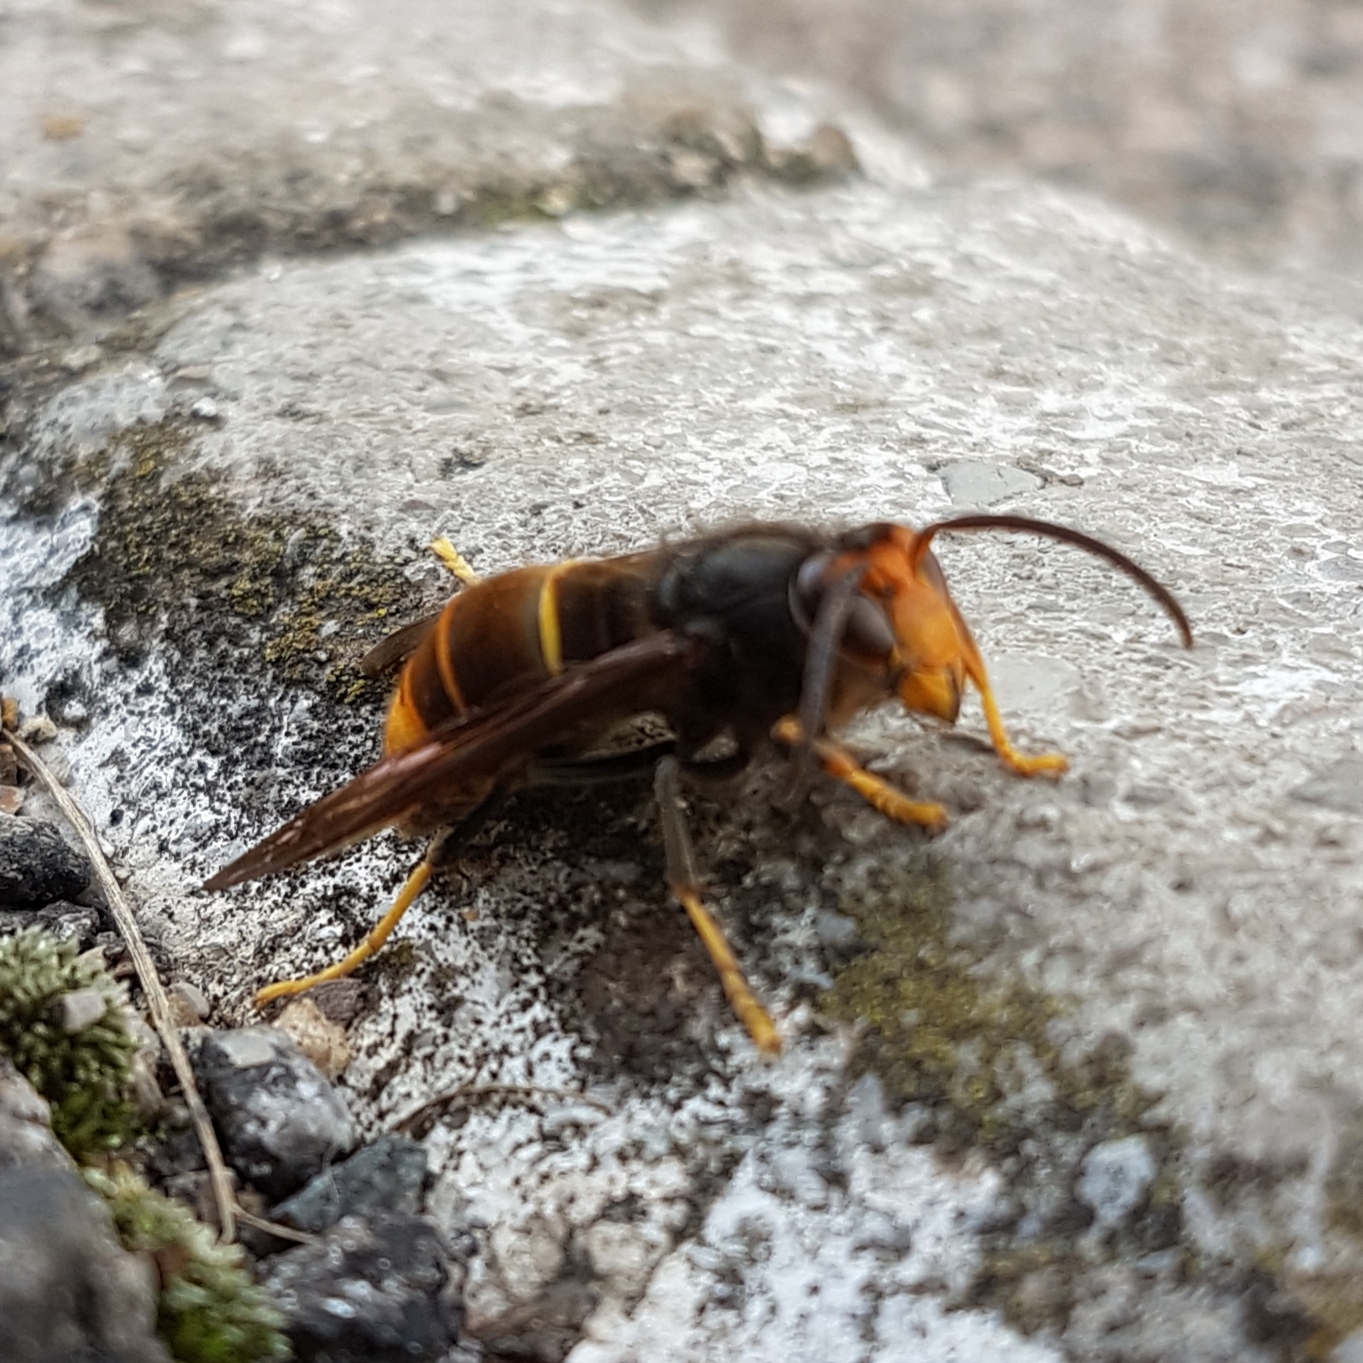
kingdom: Animalia
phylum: Arthropoda
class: Insecta
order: Hymenoptera
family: Vespidae
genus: Vespa
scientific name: Vespa velutina
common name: Asian hornet
